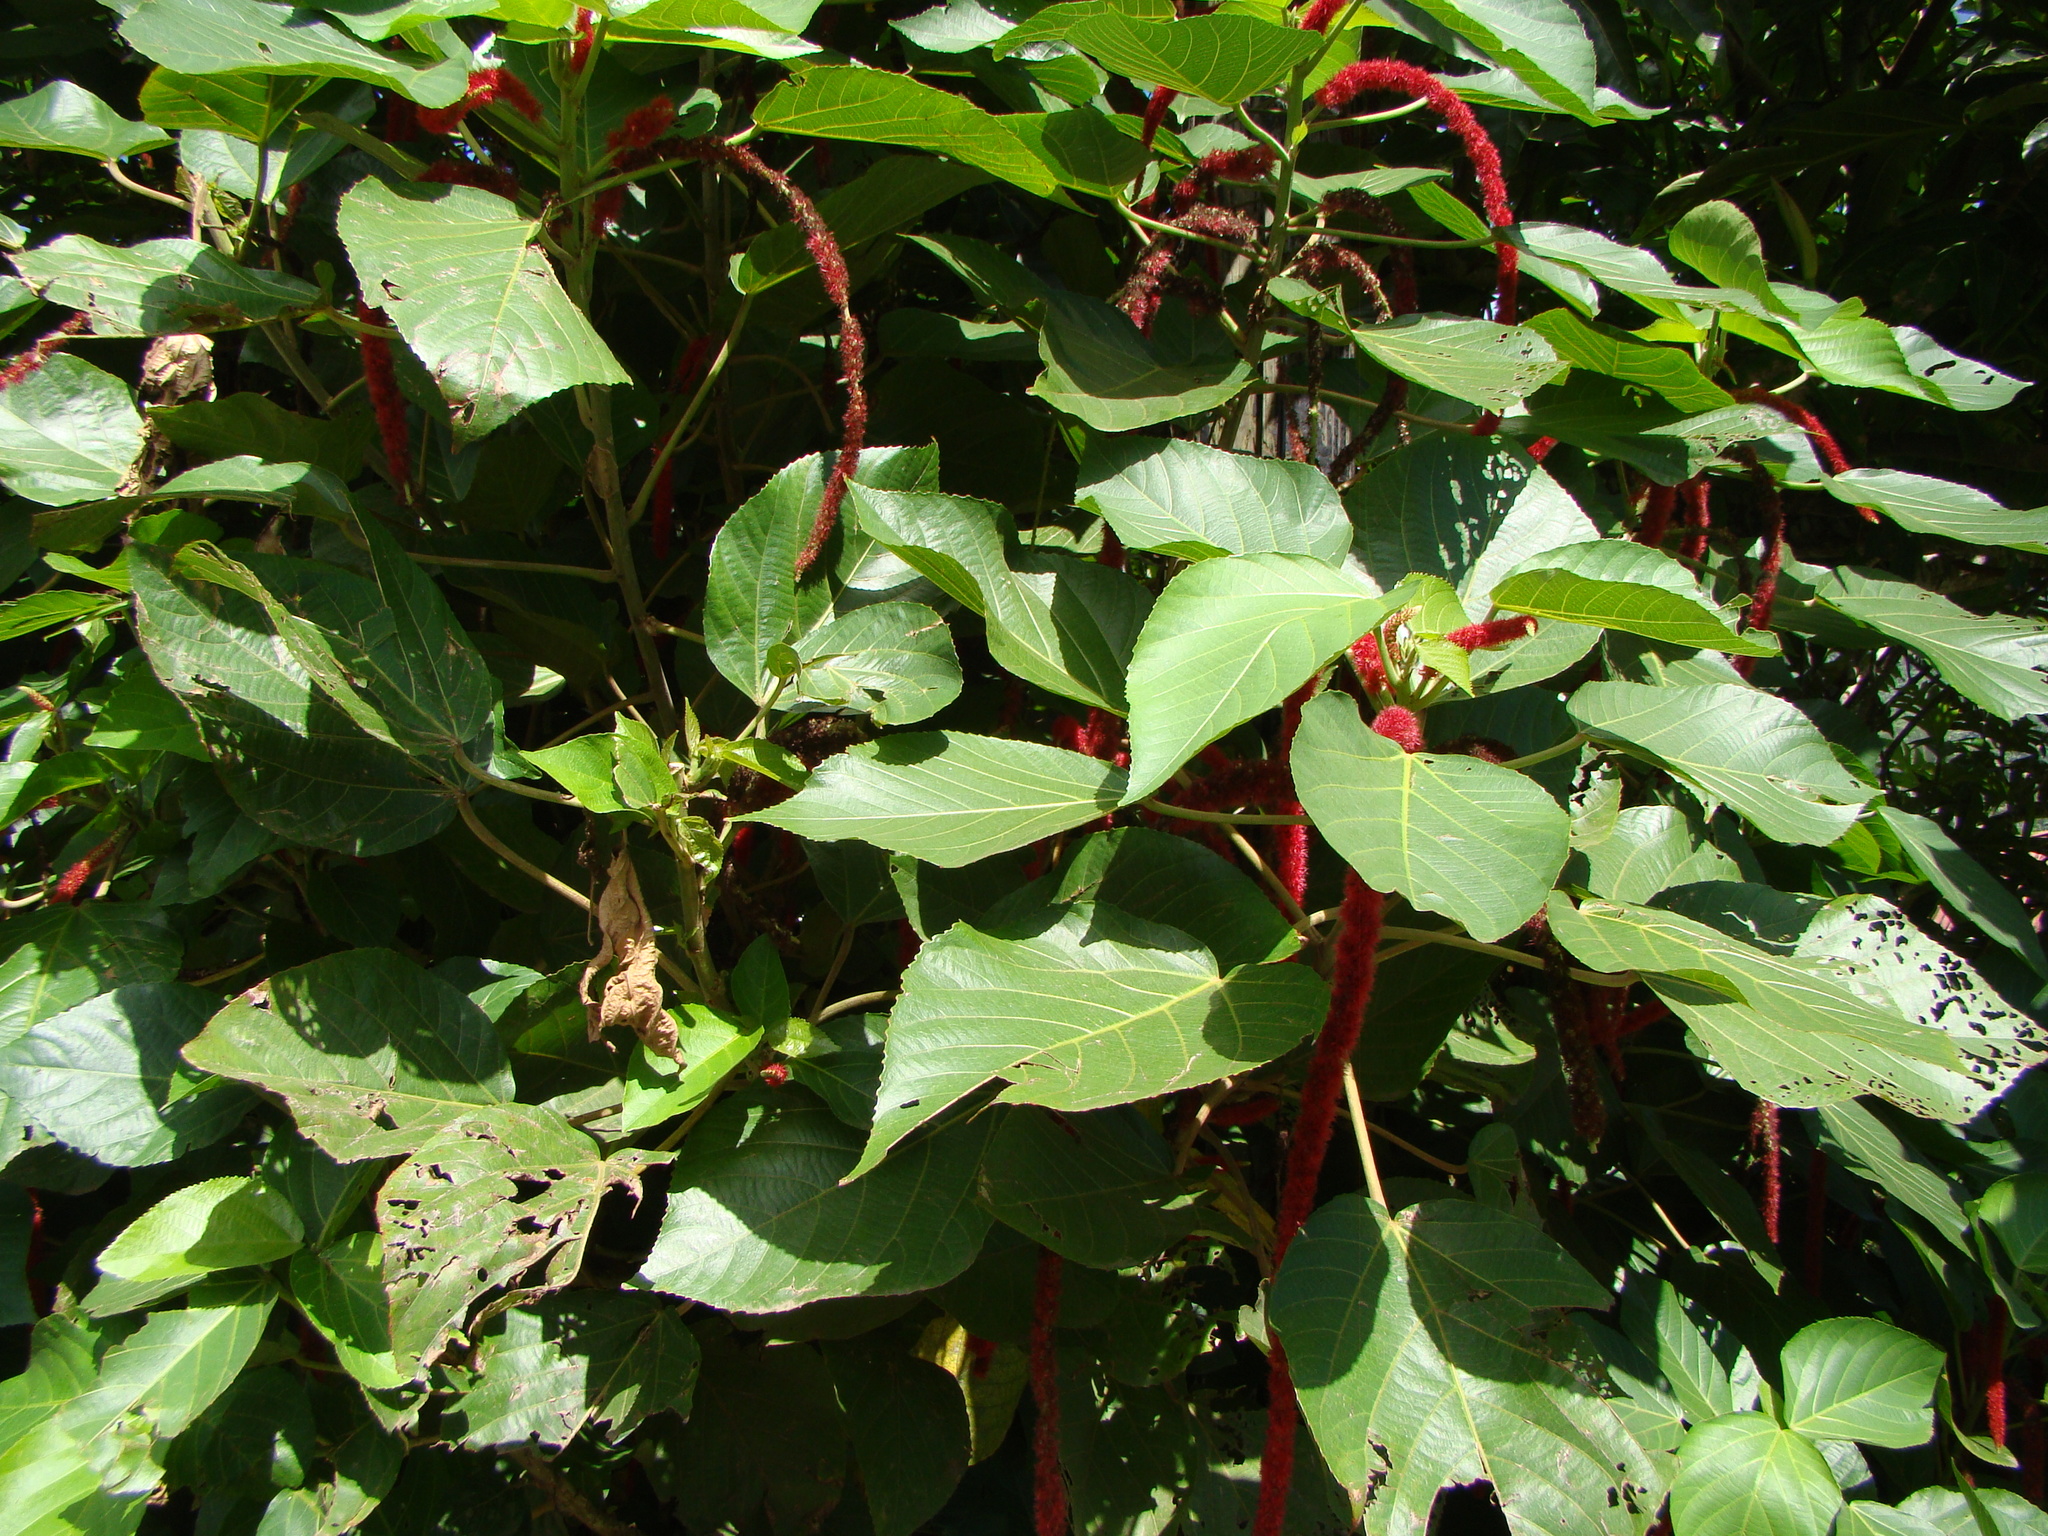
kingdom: Plantae
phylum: Tracheophyta
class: Magnoliopsida
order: Malpighiales
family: Euphorbiaceae
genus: Acalypha
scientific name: Acalypha hispida
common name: Chenilleplant
